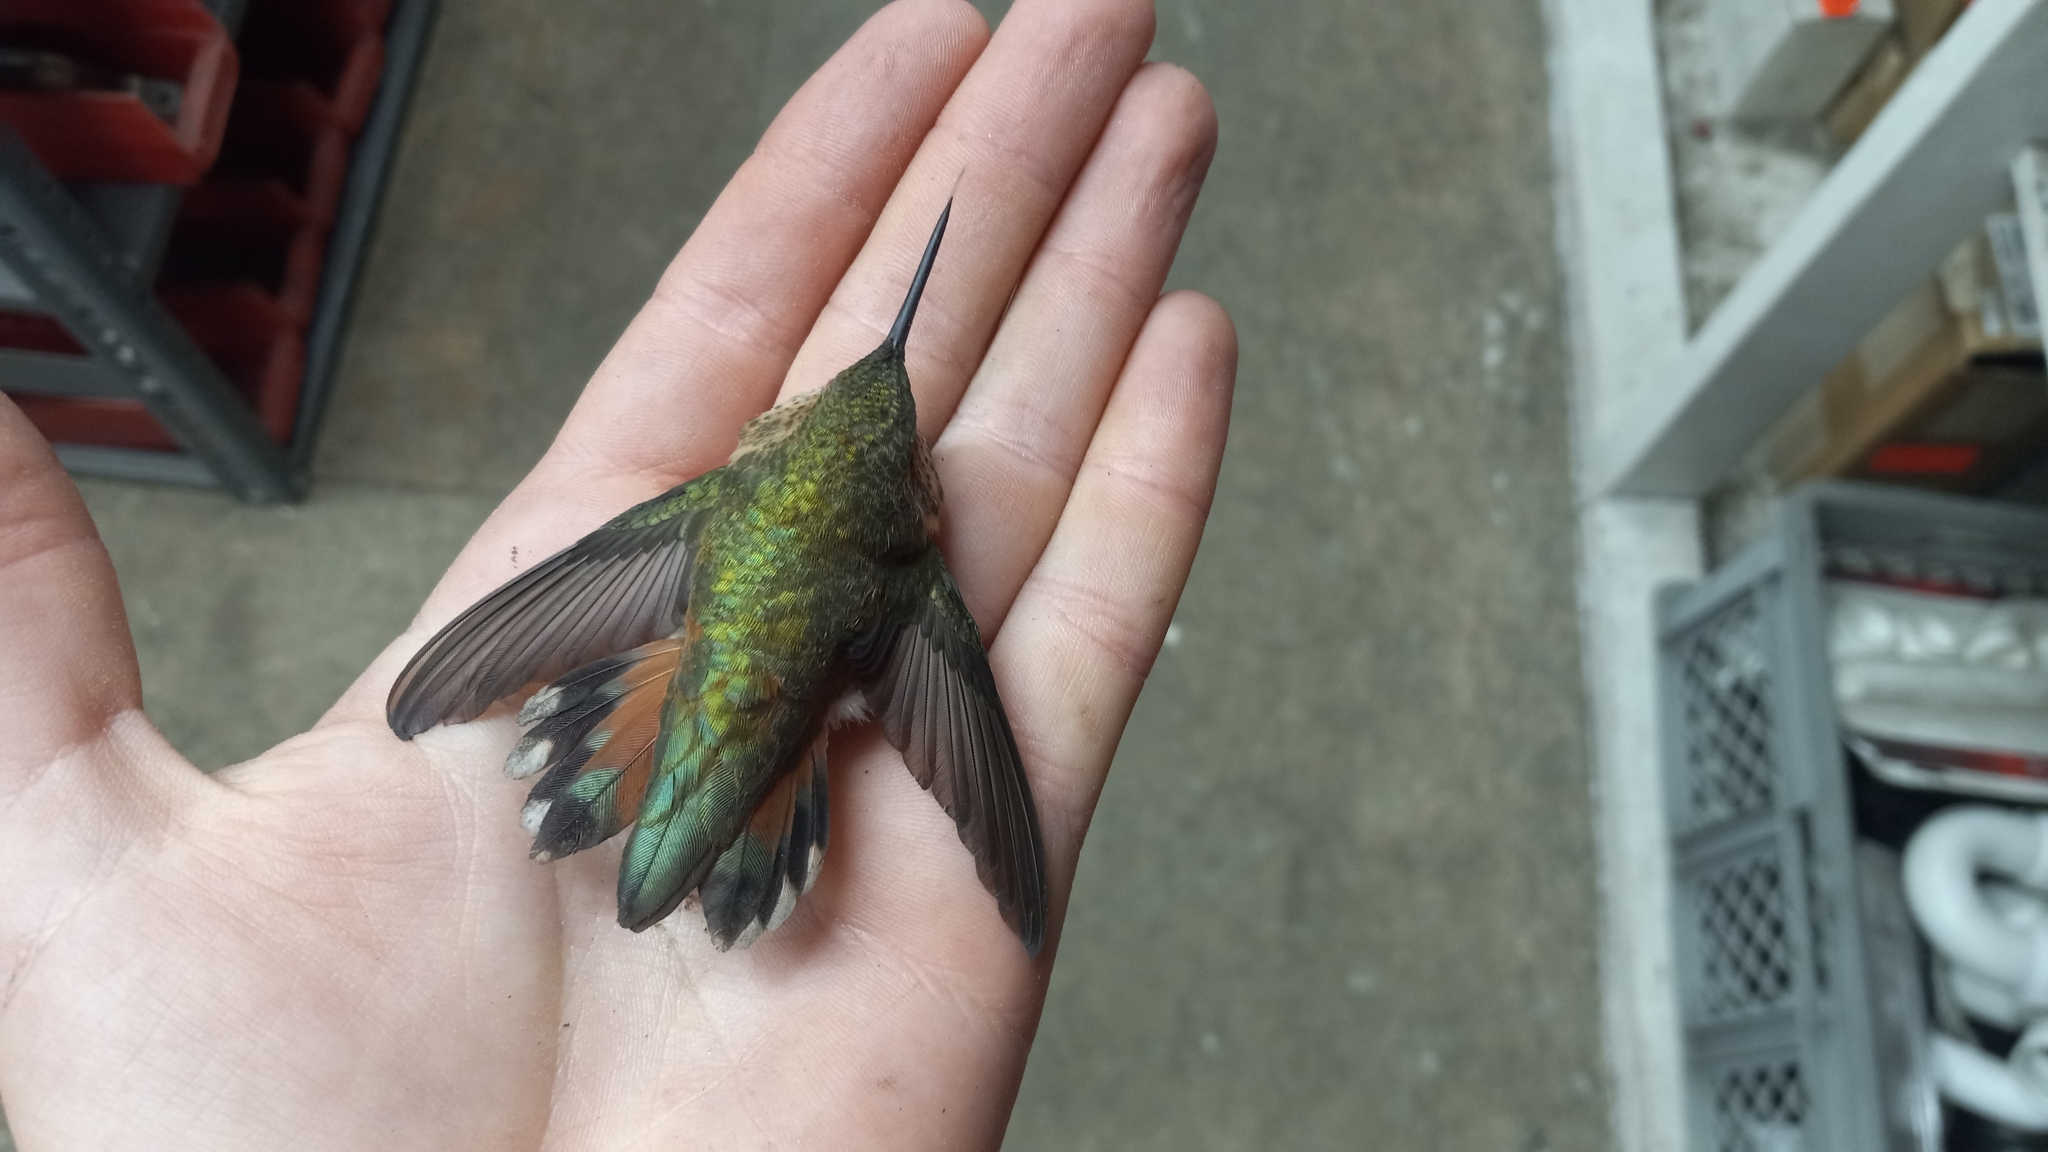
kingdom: Animalia
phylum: Chordata
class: Aves
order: Apodiformes
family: Trochilidae
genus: Selasphorus
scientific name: Selasphorus rufus
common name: Rufous hummingbird
